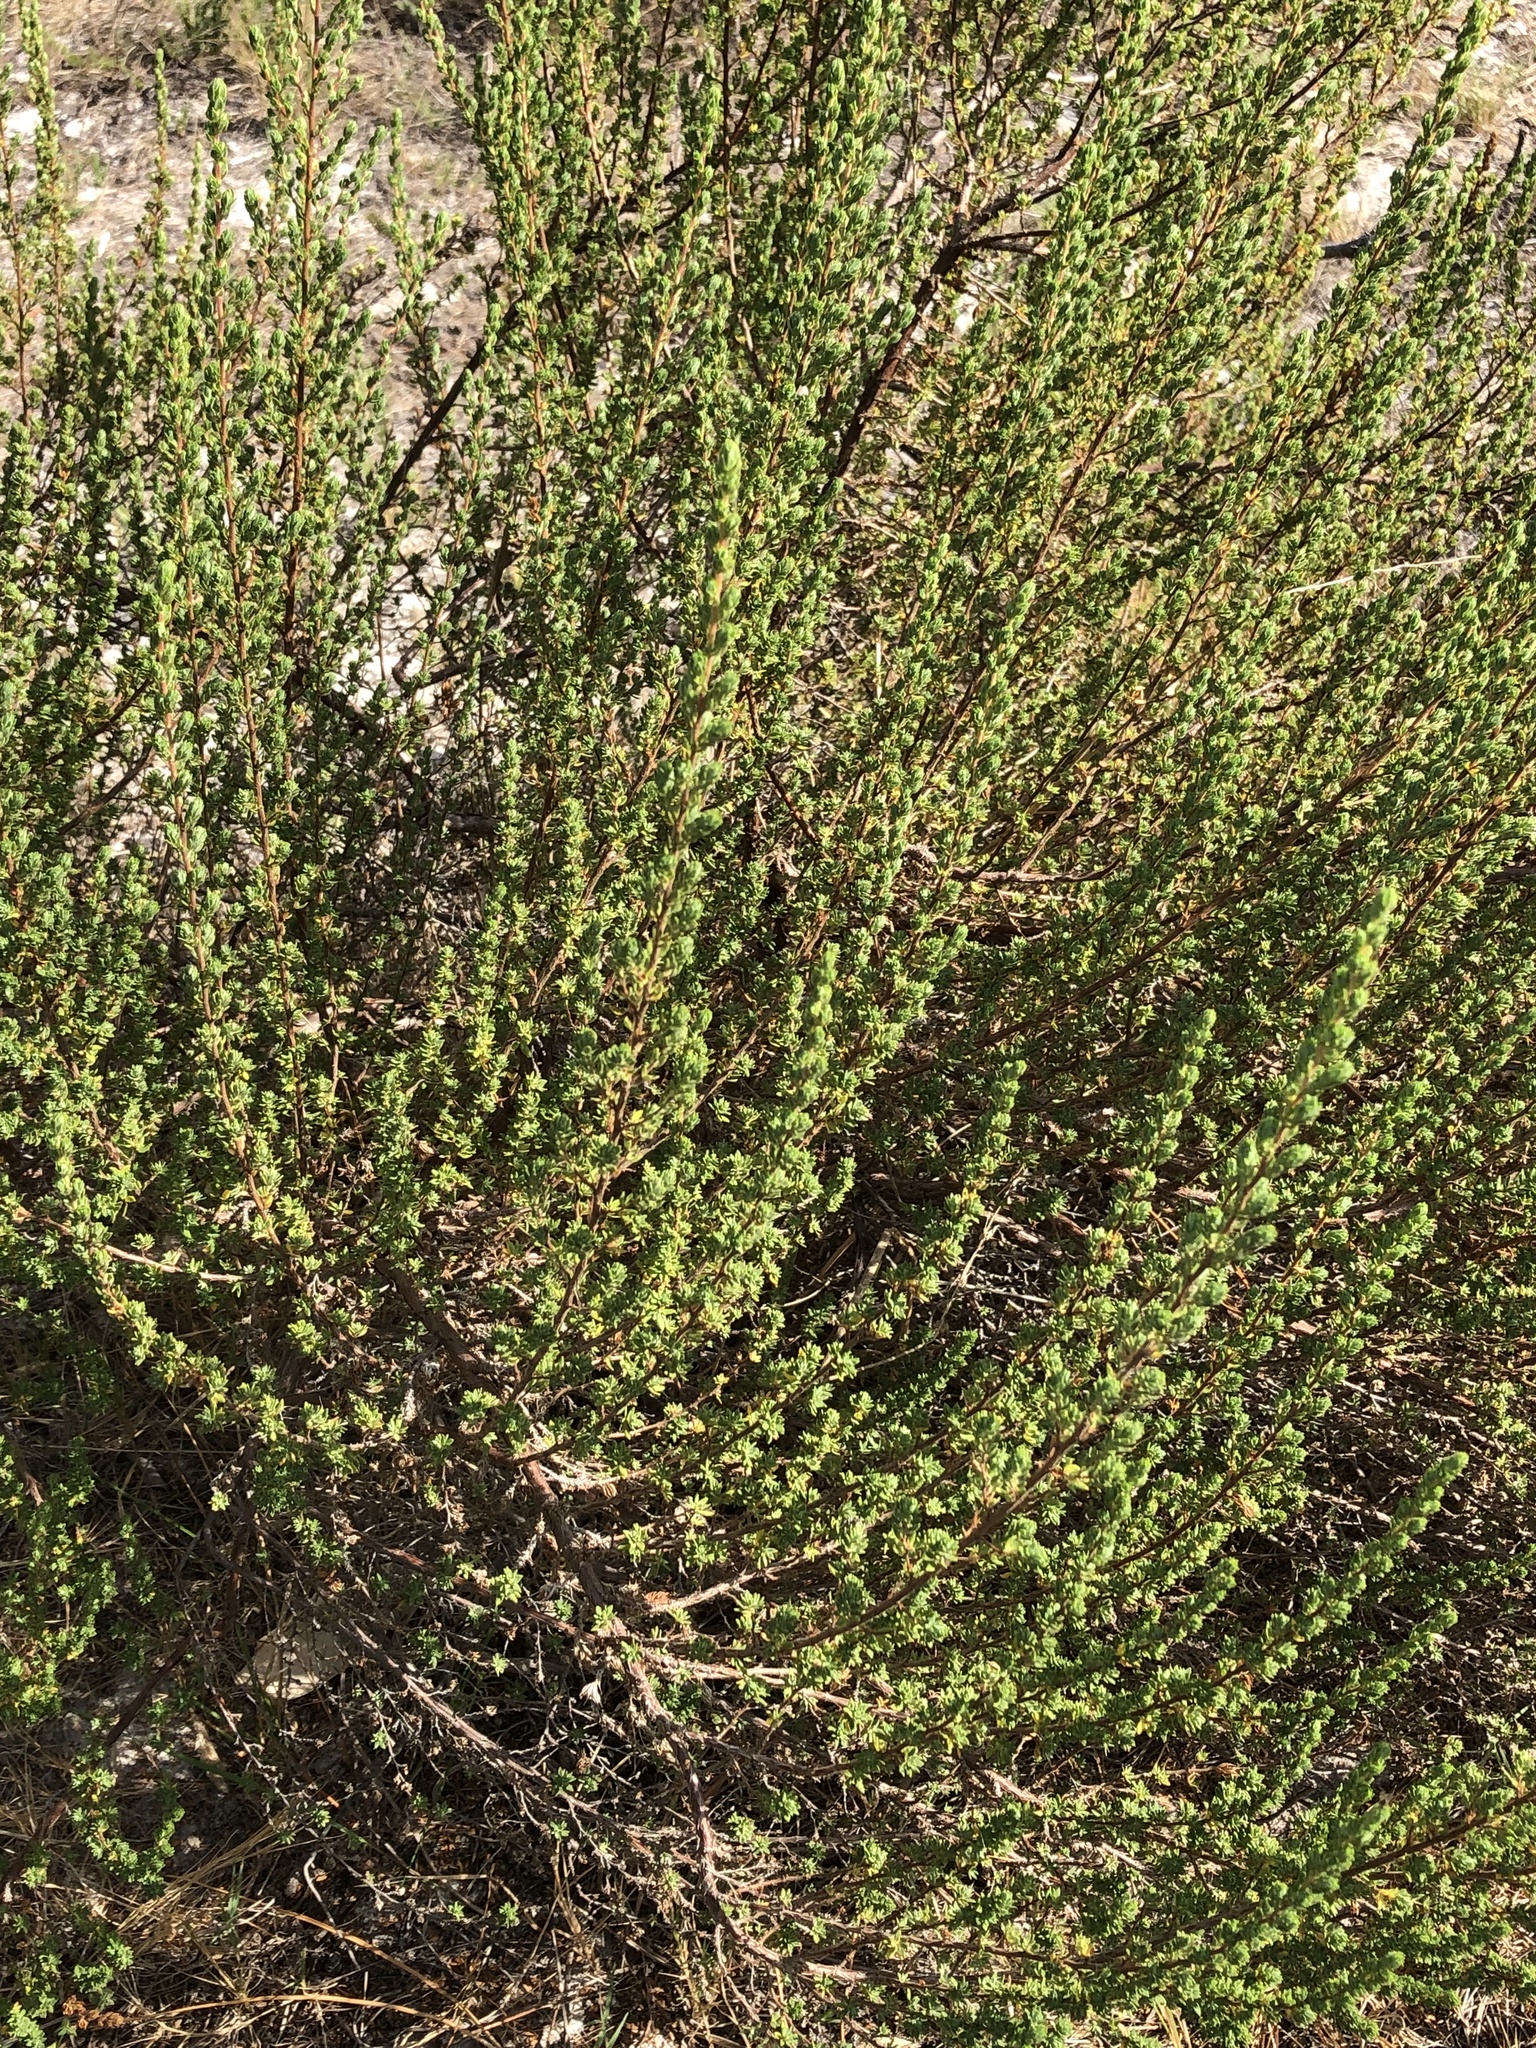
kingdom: Plantae
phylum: Tracheophyta
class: Magnoliopsida
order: Rosales
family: Rosaceae
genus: Cliffortia
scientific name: Cliffortia polygonifolia
